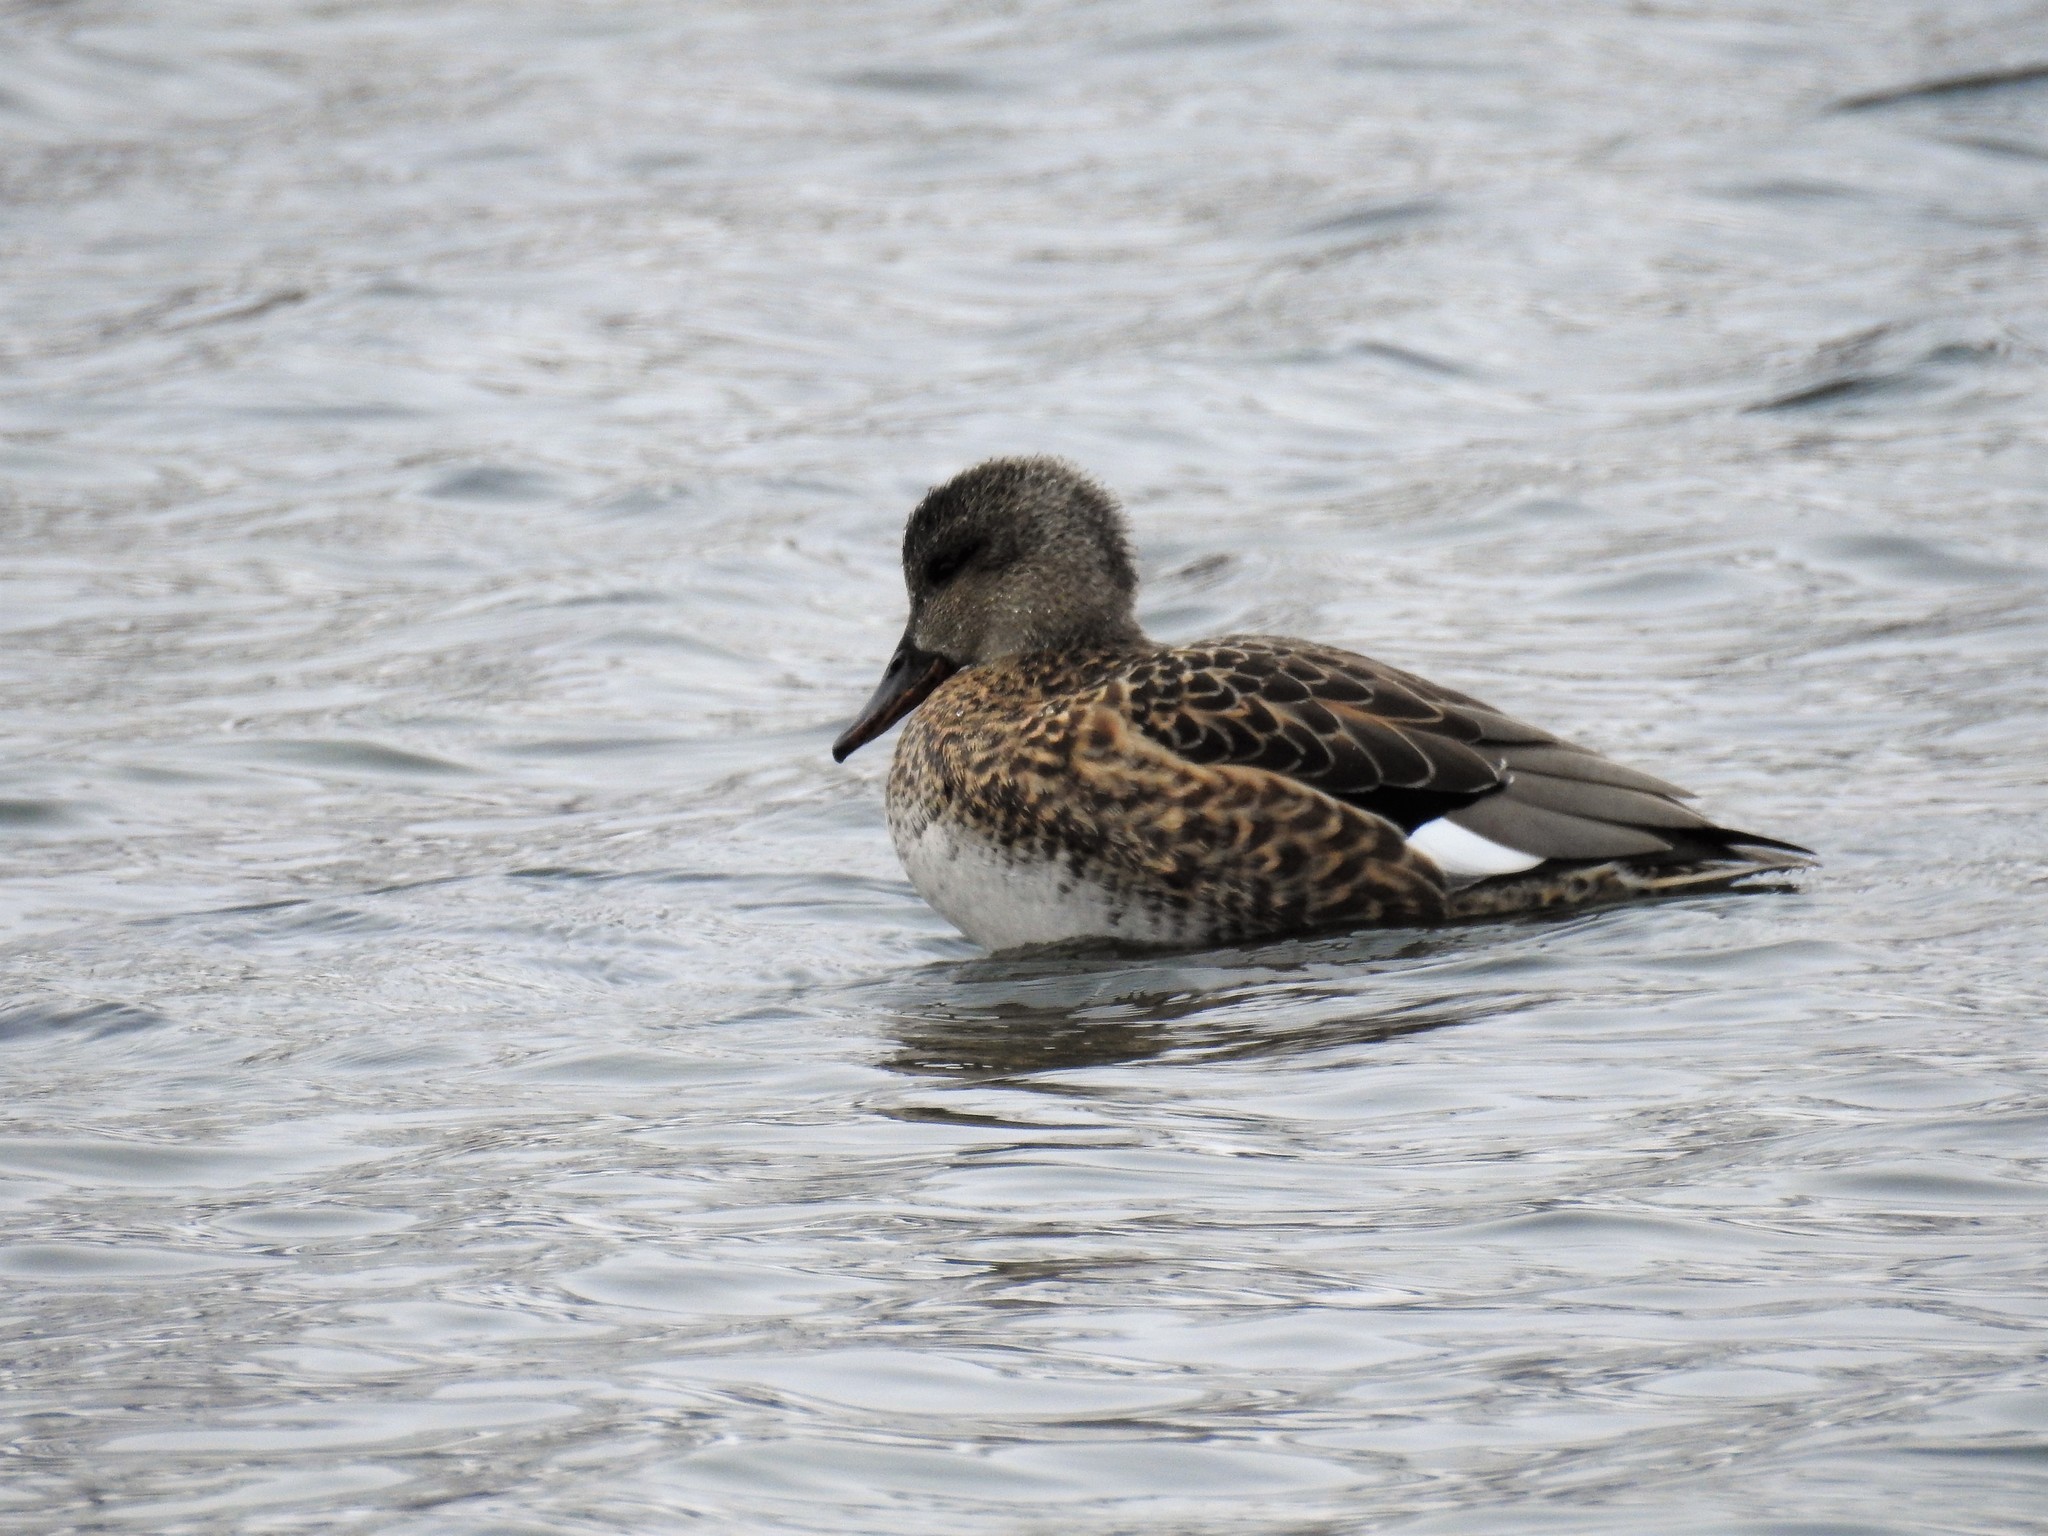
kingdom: Animalia
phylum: Chordata
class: Aves
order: Anseriformes
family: Anatidae
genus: Mareca
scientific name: Mareca strepera
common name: Gadwall
